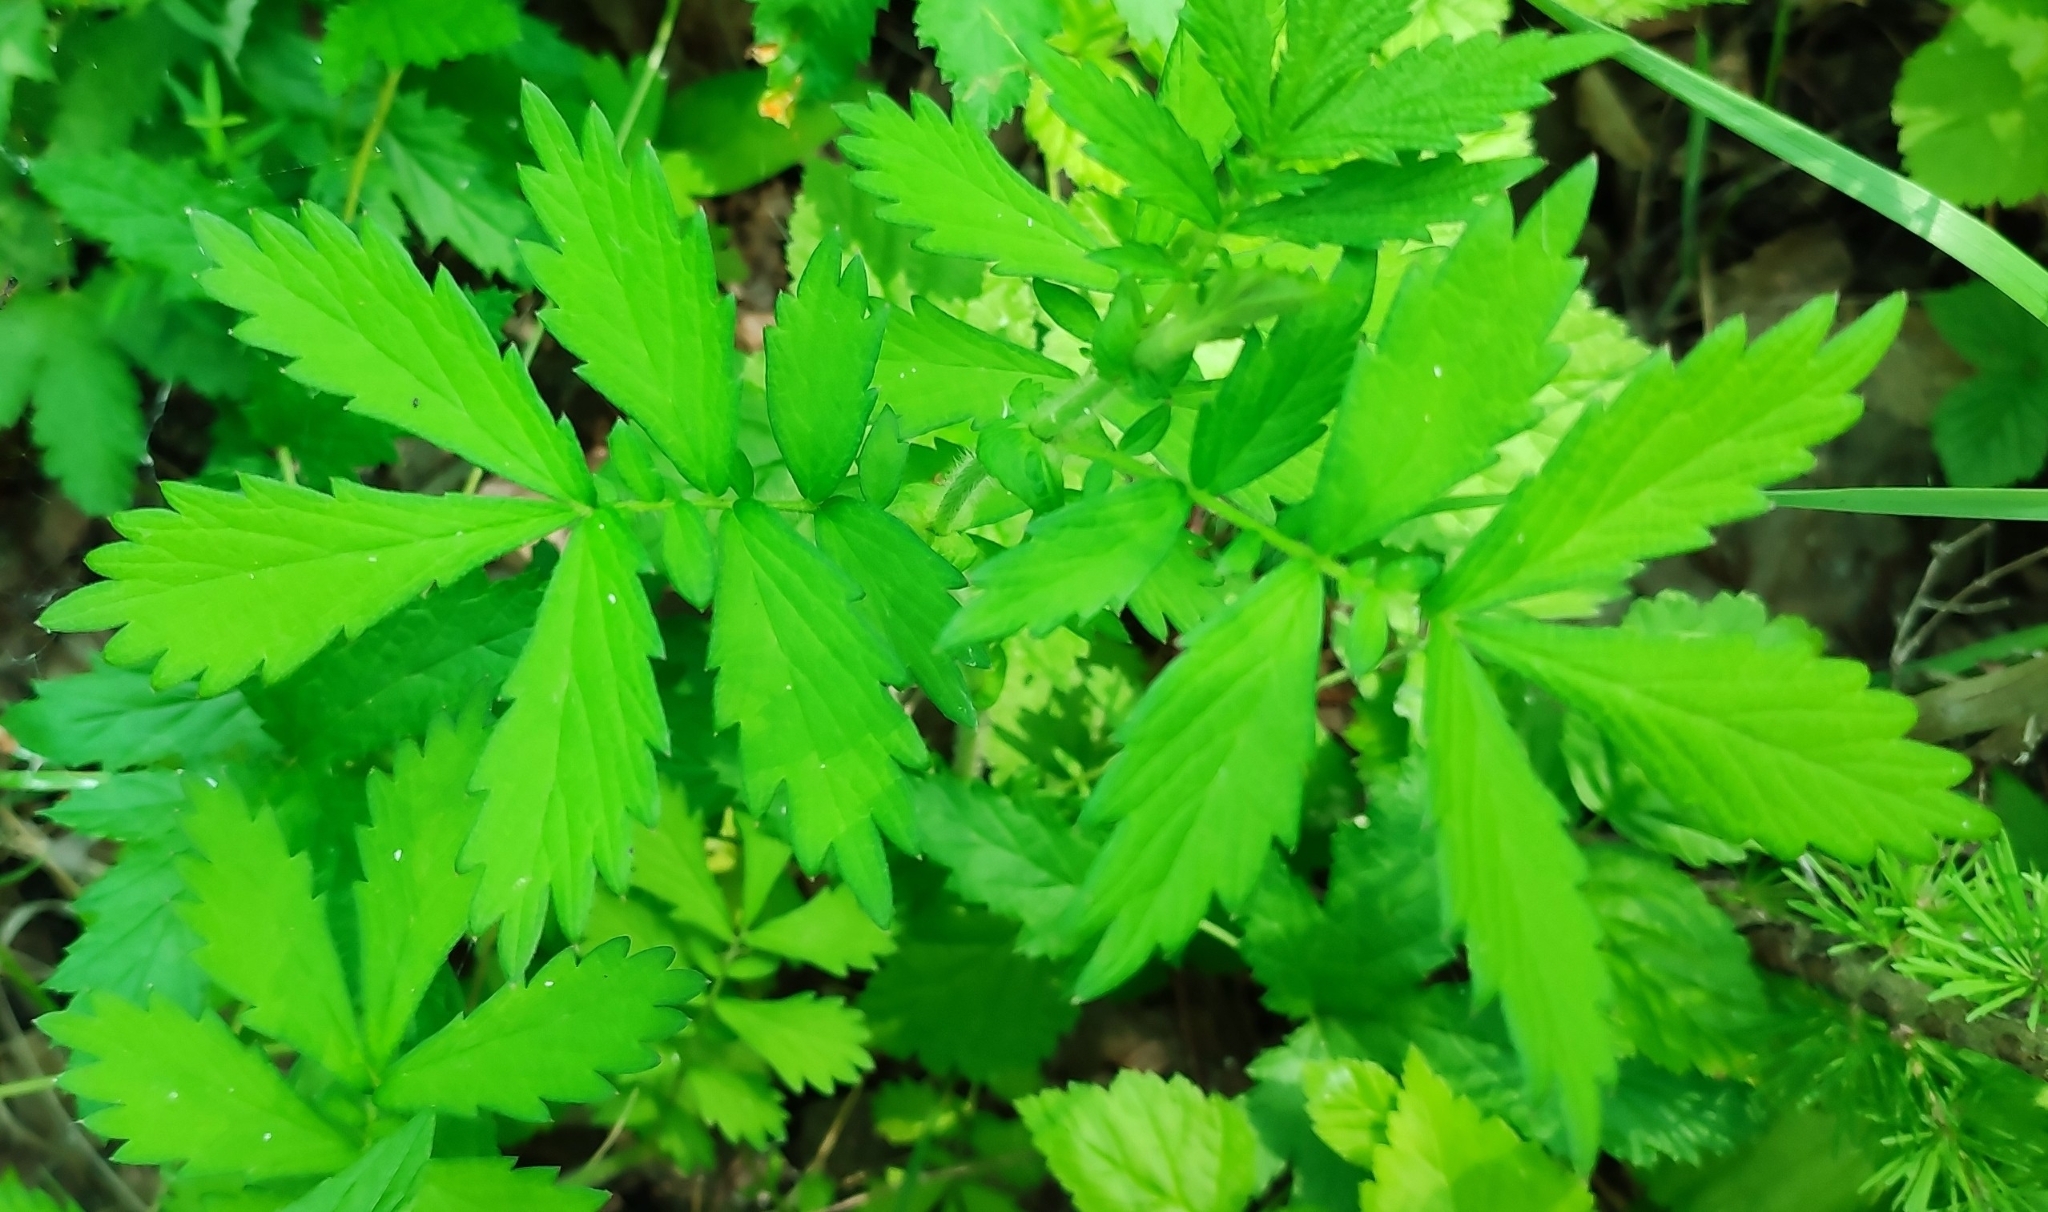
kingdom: Plantae
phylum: Tracheophyta
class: Magnoliopsida
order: Rosales
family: Rosaceae
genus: Agrimonia
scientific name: Agrimonia pilosa
